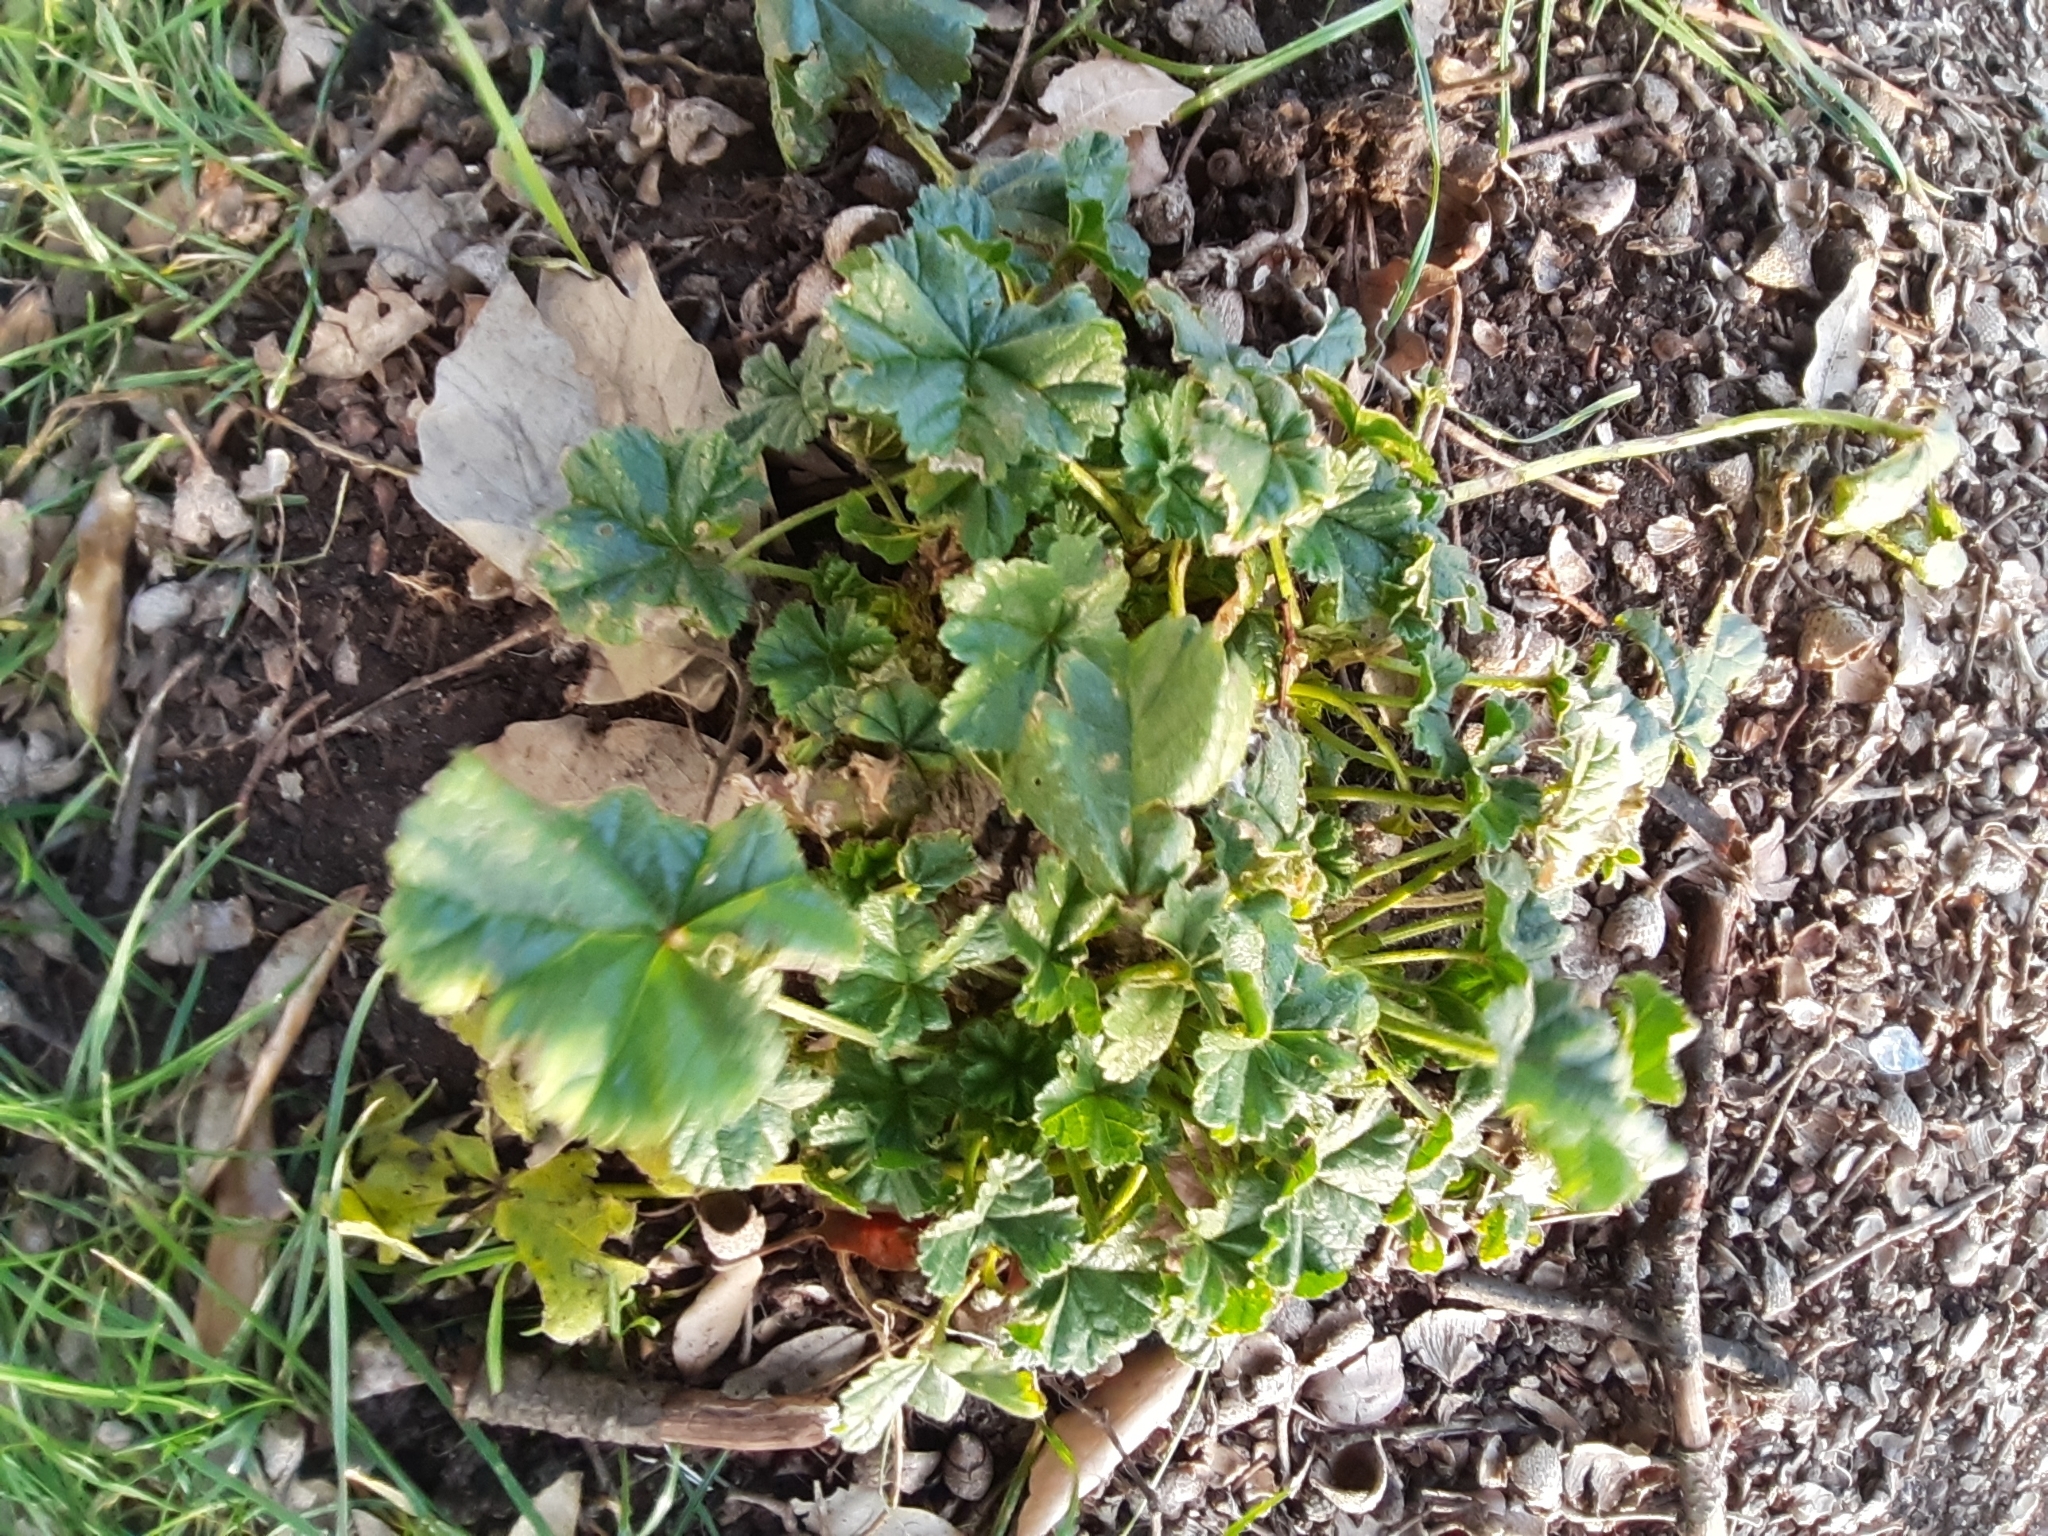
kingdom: Plantae
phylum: Tracheophyta
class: Magnoliopsida
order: Malvales
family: Malvaceae
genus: Malva
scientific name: Malva sylvestris
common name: Common mallow
